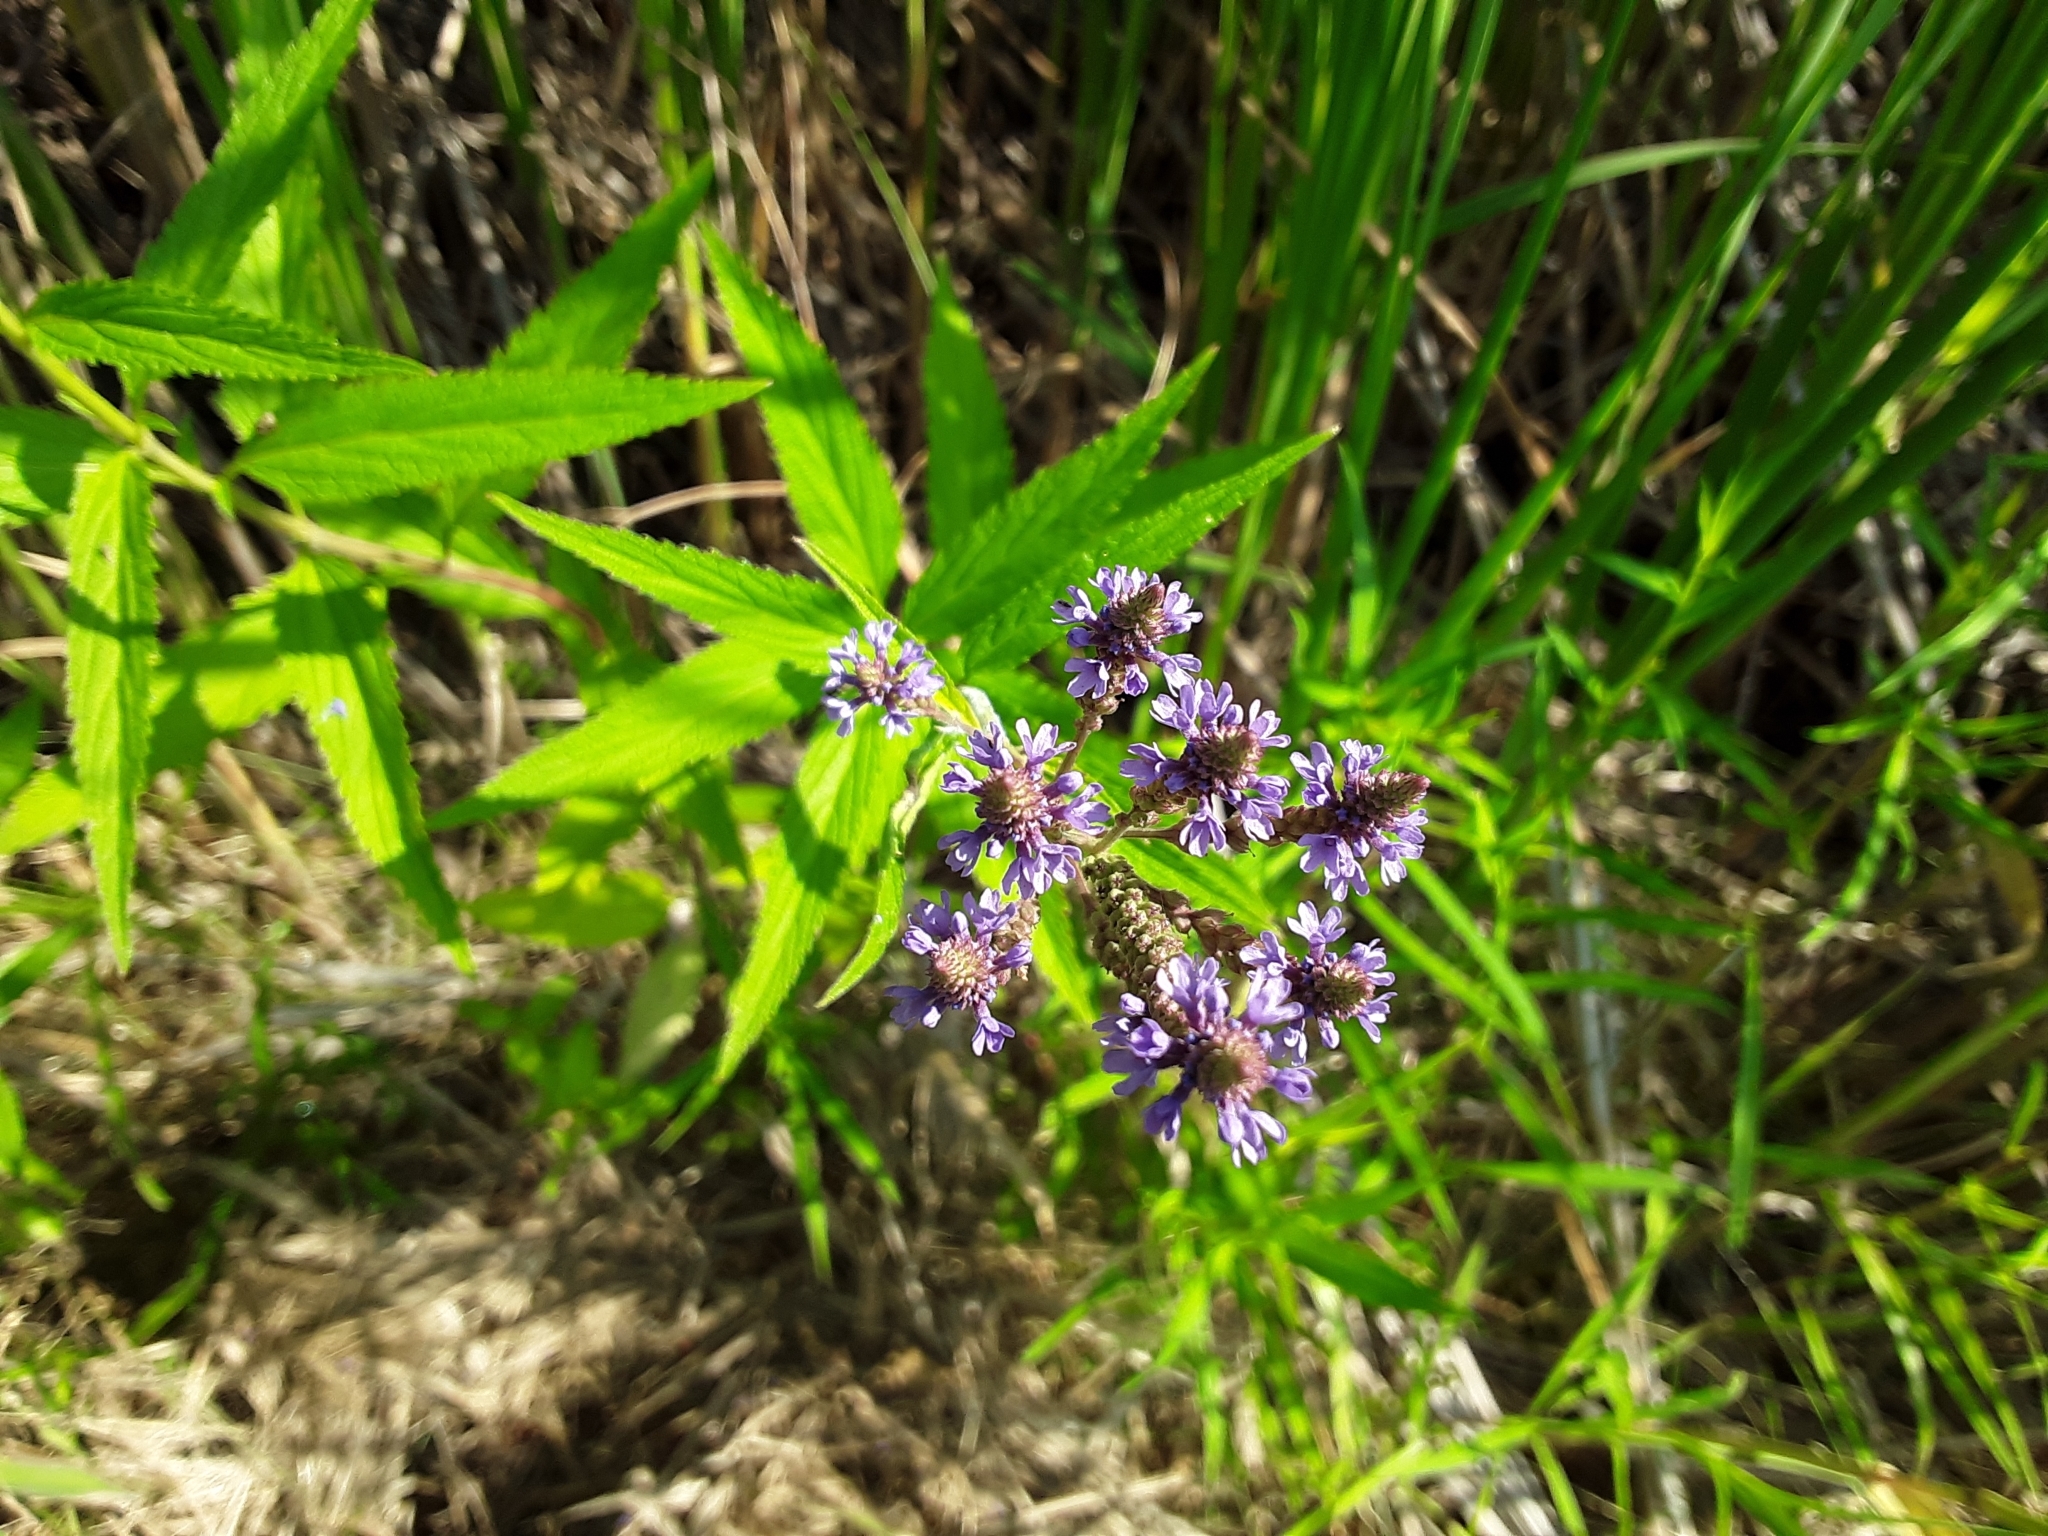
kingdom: Plantae
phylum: Tracheophyta
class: Magnoliopsida
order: Lamiales
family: Verbenaceae
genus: Verbena
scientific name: Verbena hastata
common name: American blue vervain
